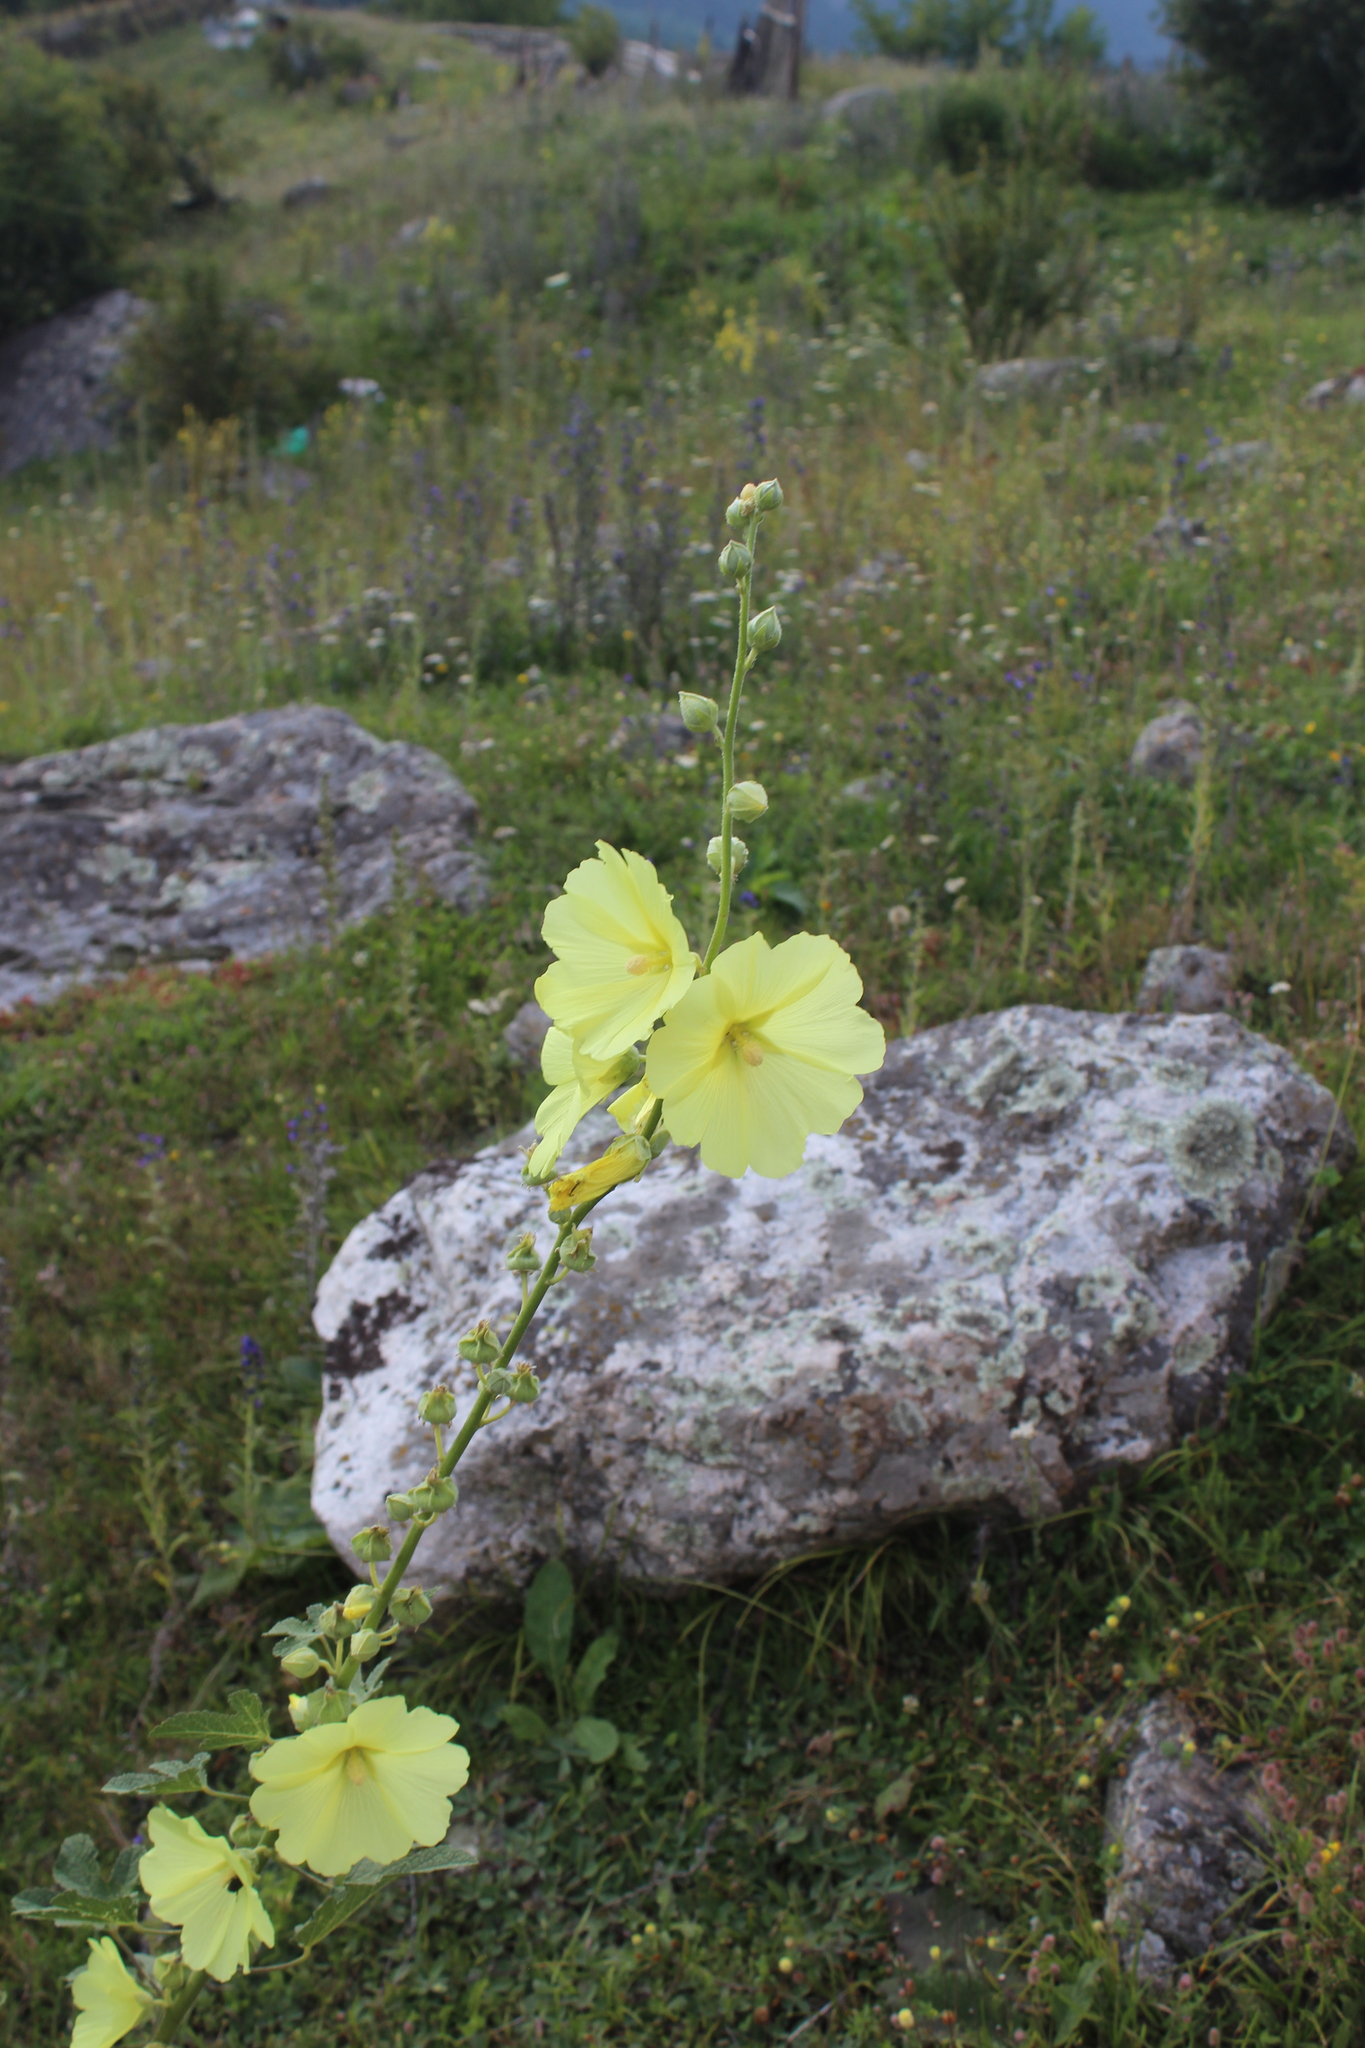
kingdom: Plantae
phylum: Tracheophyta
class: Magnoliopsida
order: Malvales
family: Malvaceae
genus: Alcea
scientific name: Alcea rugosa
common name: Russian hollyhock
